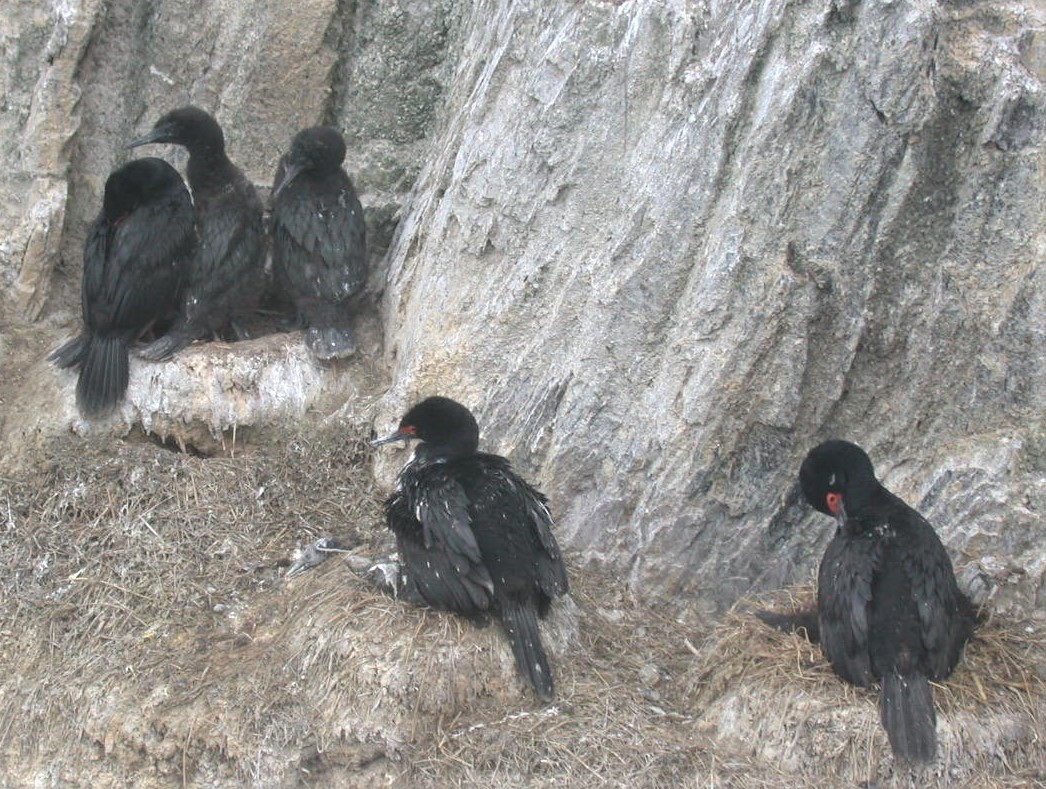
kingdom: Animalia
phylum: Chordata
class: Aves
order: Suliformes
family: Phalacrocoracidae
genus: Phalacrocorax
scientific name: Phalacrocorax magellanicus
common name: Rock shag
